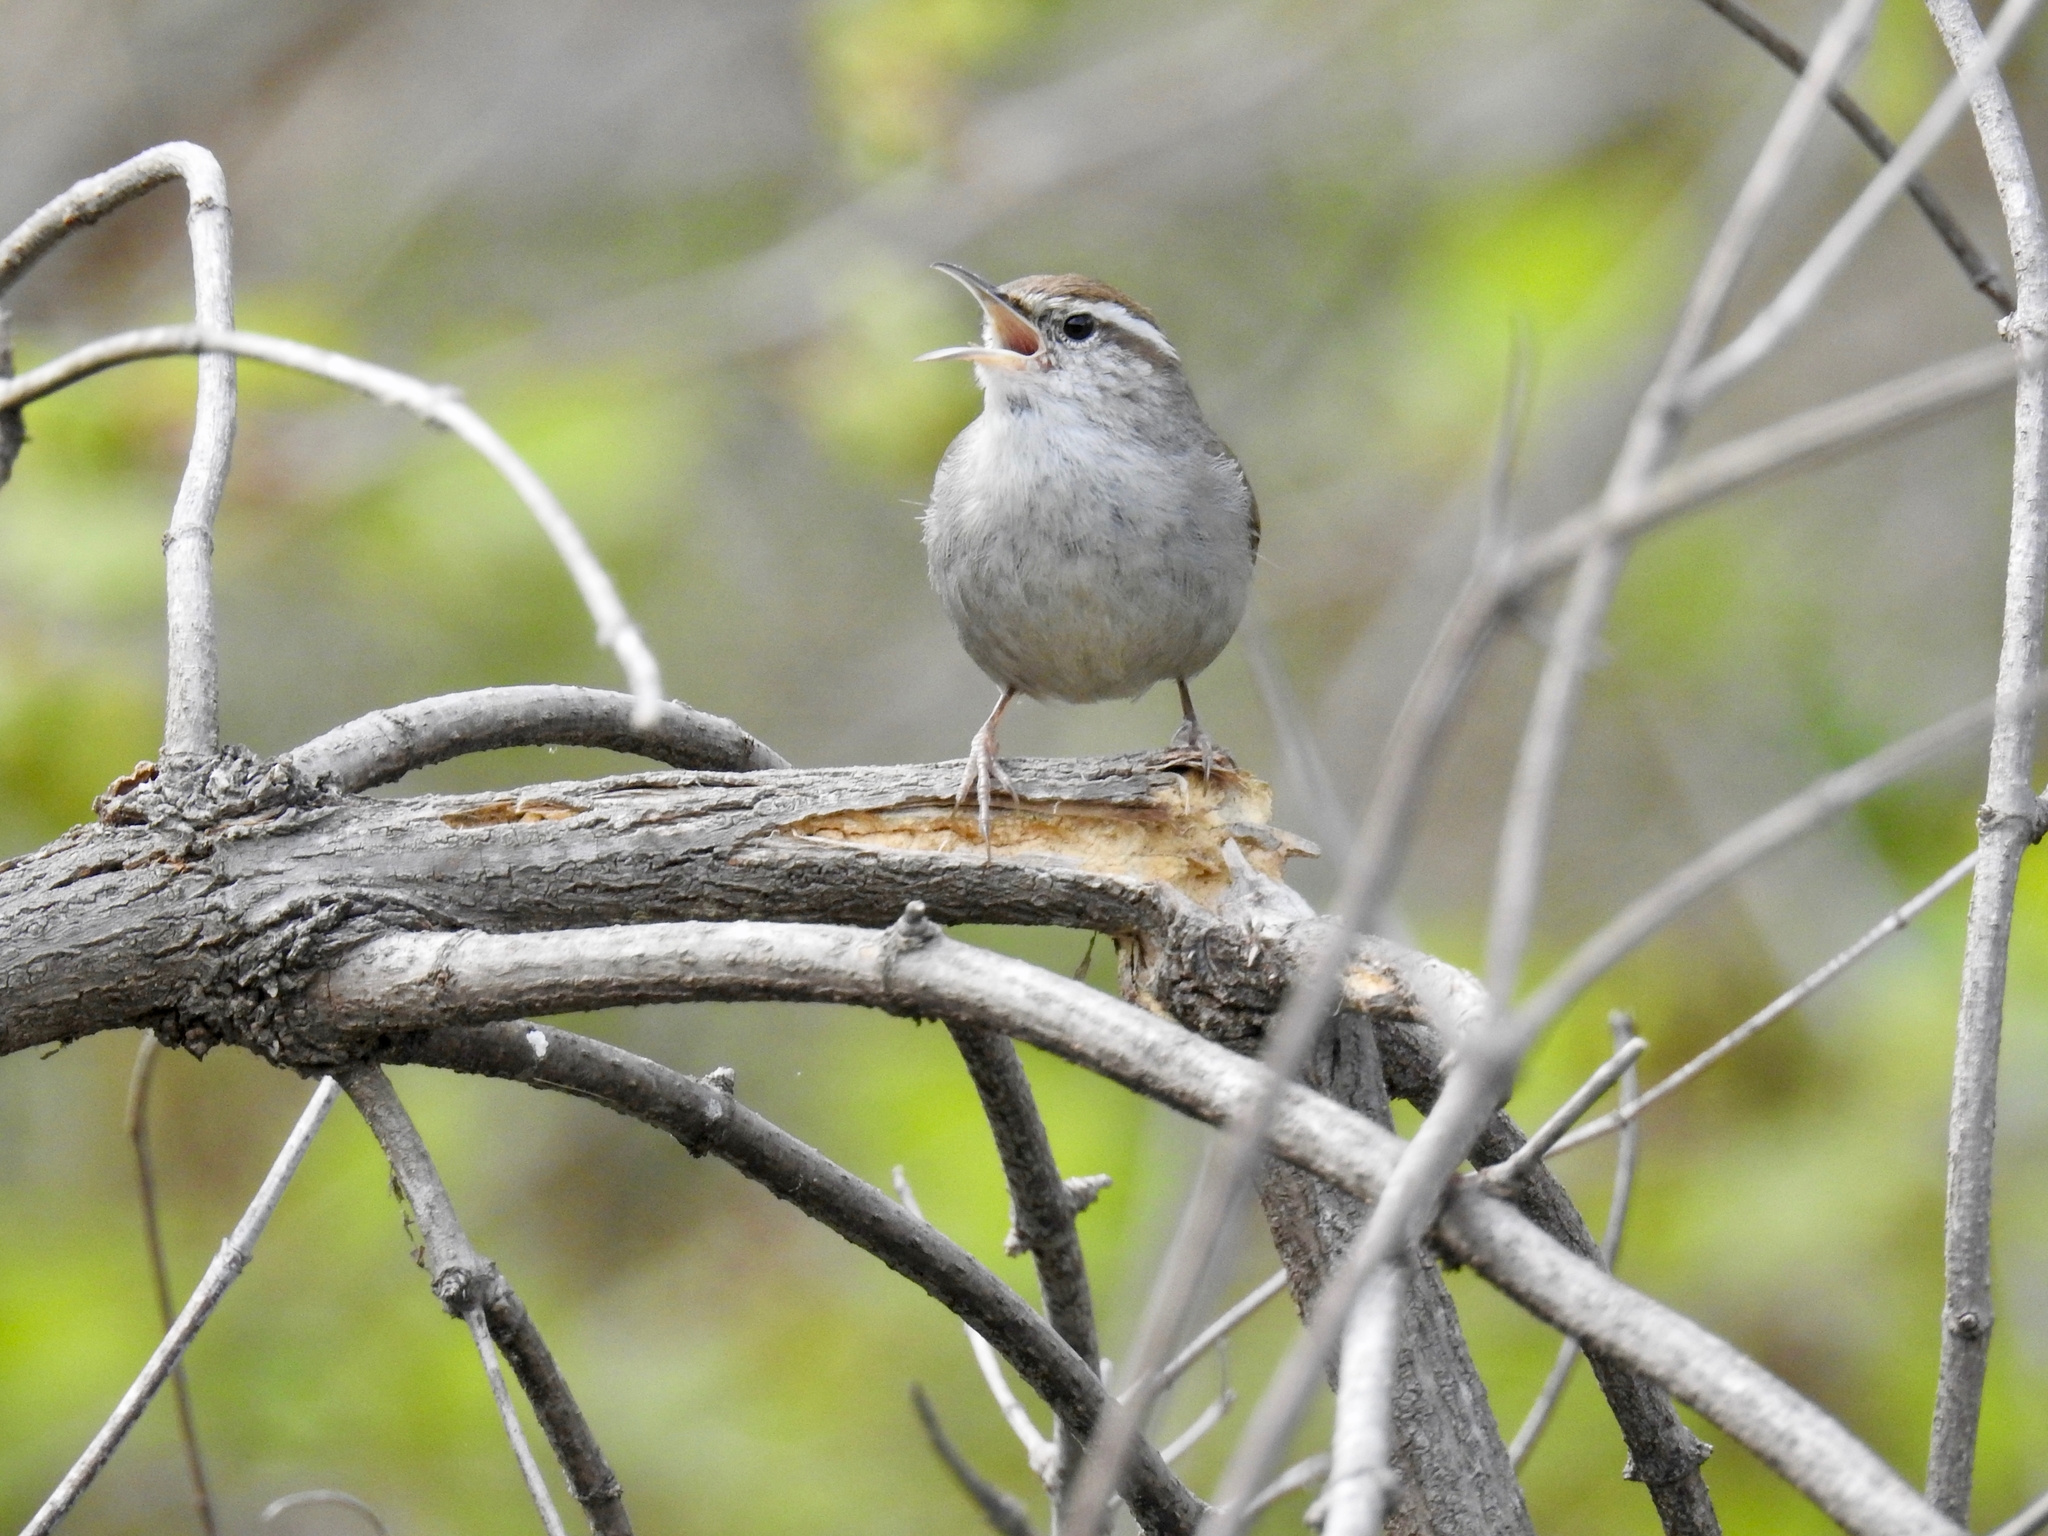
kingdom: Animalia
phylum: Chordata
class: Aves
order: Passeriformes
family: Troglodytidae
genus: Thryomanes
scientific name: Thryomanes bewickii
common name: Bewick's wren
